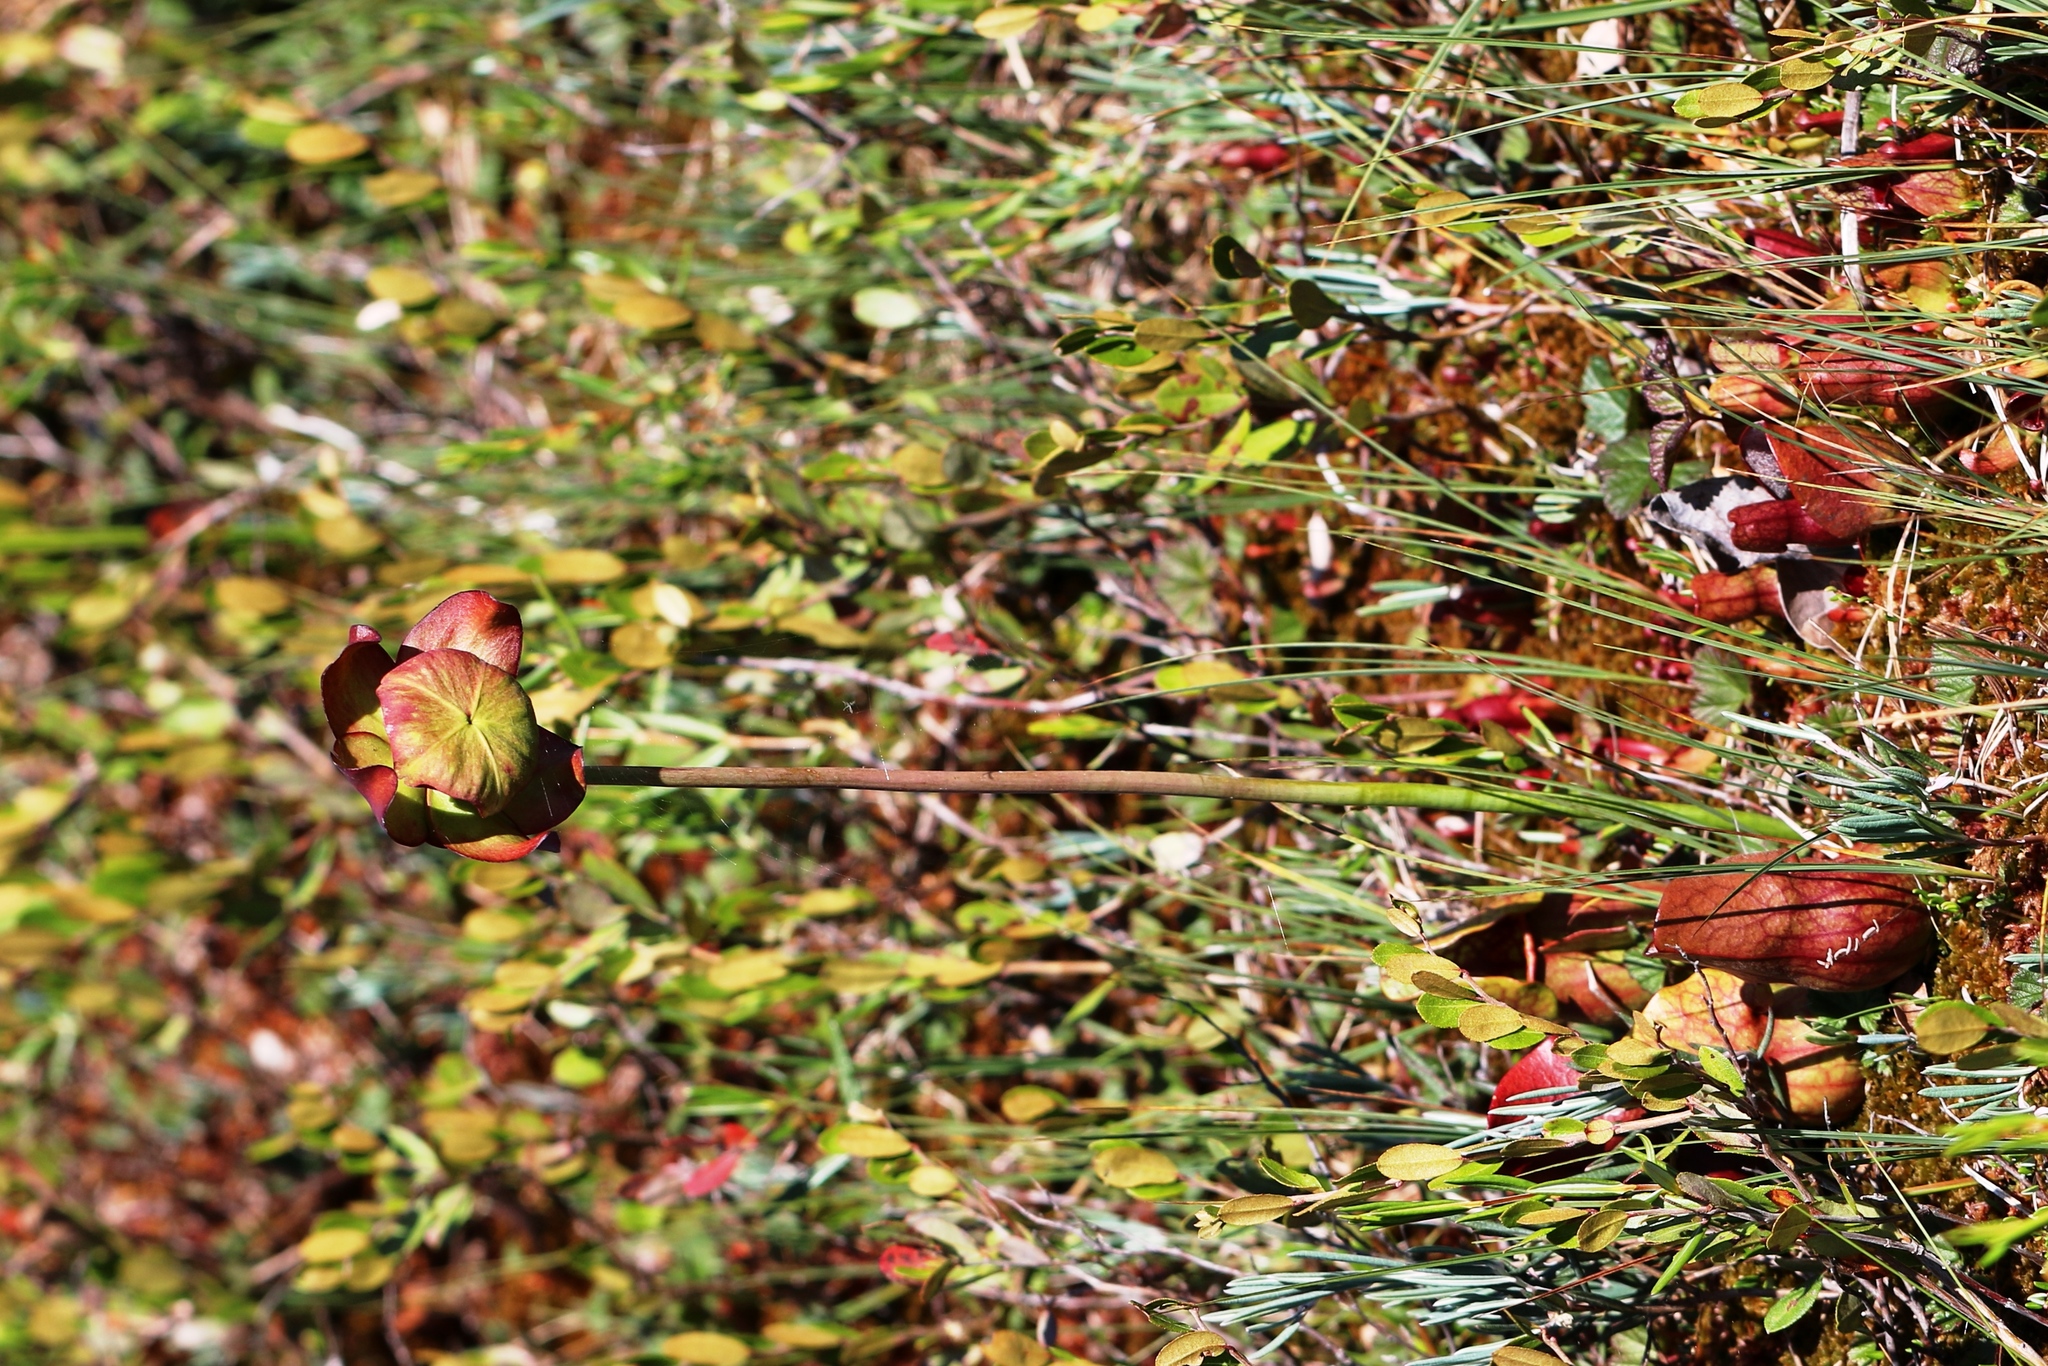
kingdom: Plantae
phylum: Tracheophyta
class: Magnoliopsida
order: Ericales
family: Sarraceniaceae
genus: Sarracenia
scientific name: Sarracenia purpurea
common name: Pitcherplant
